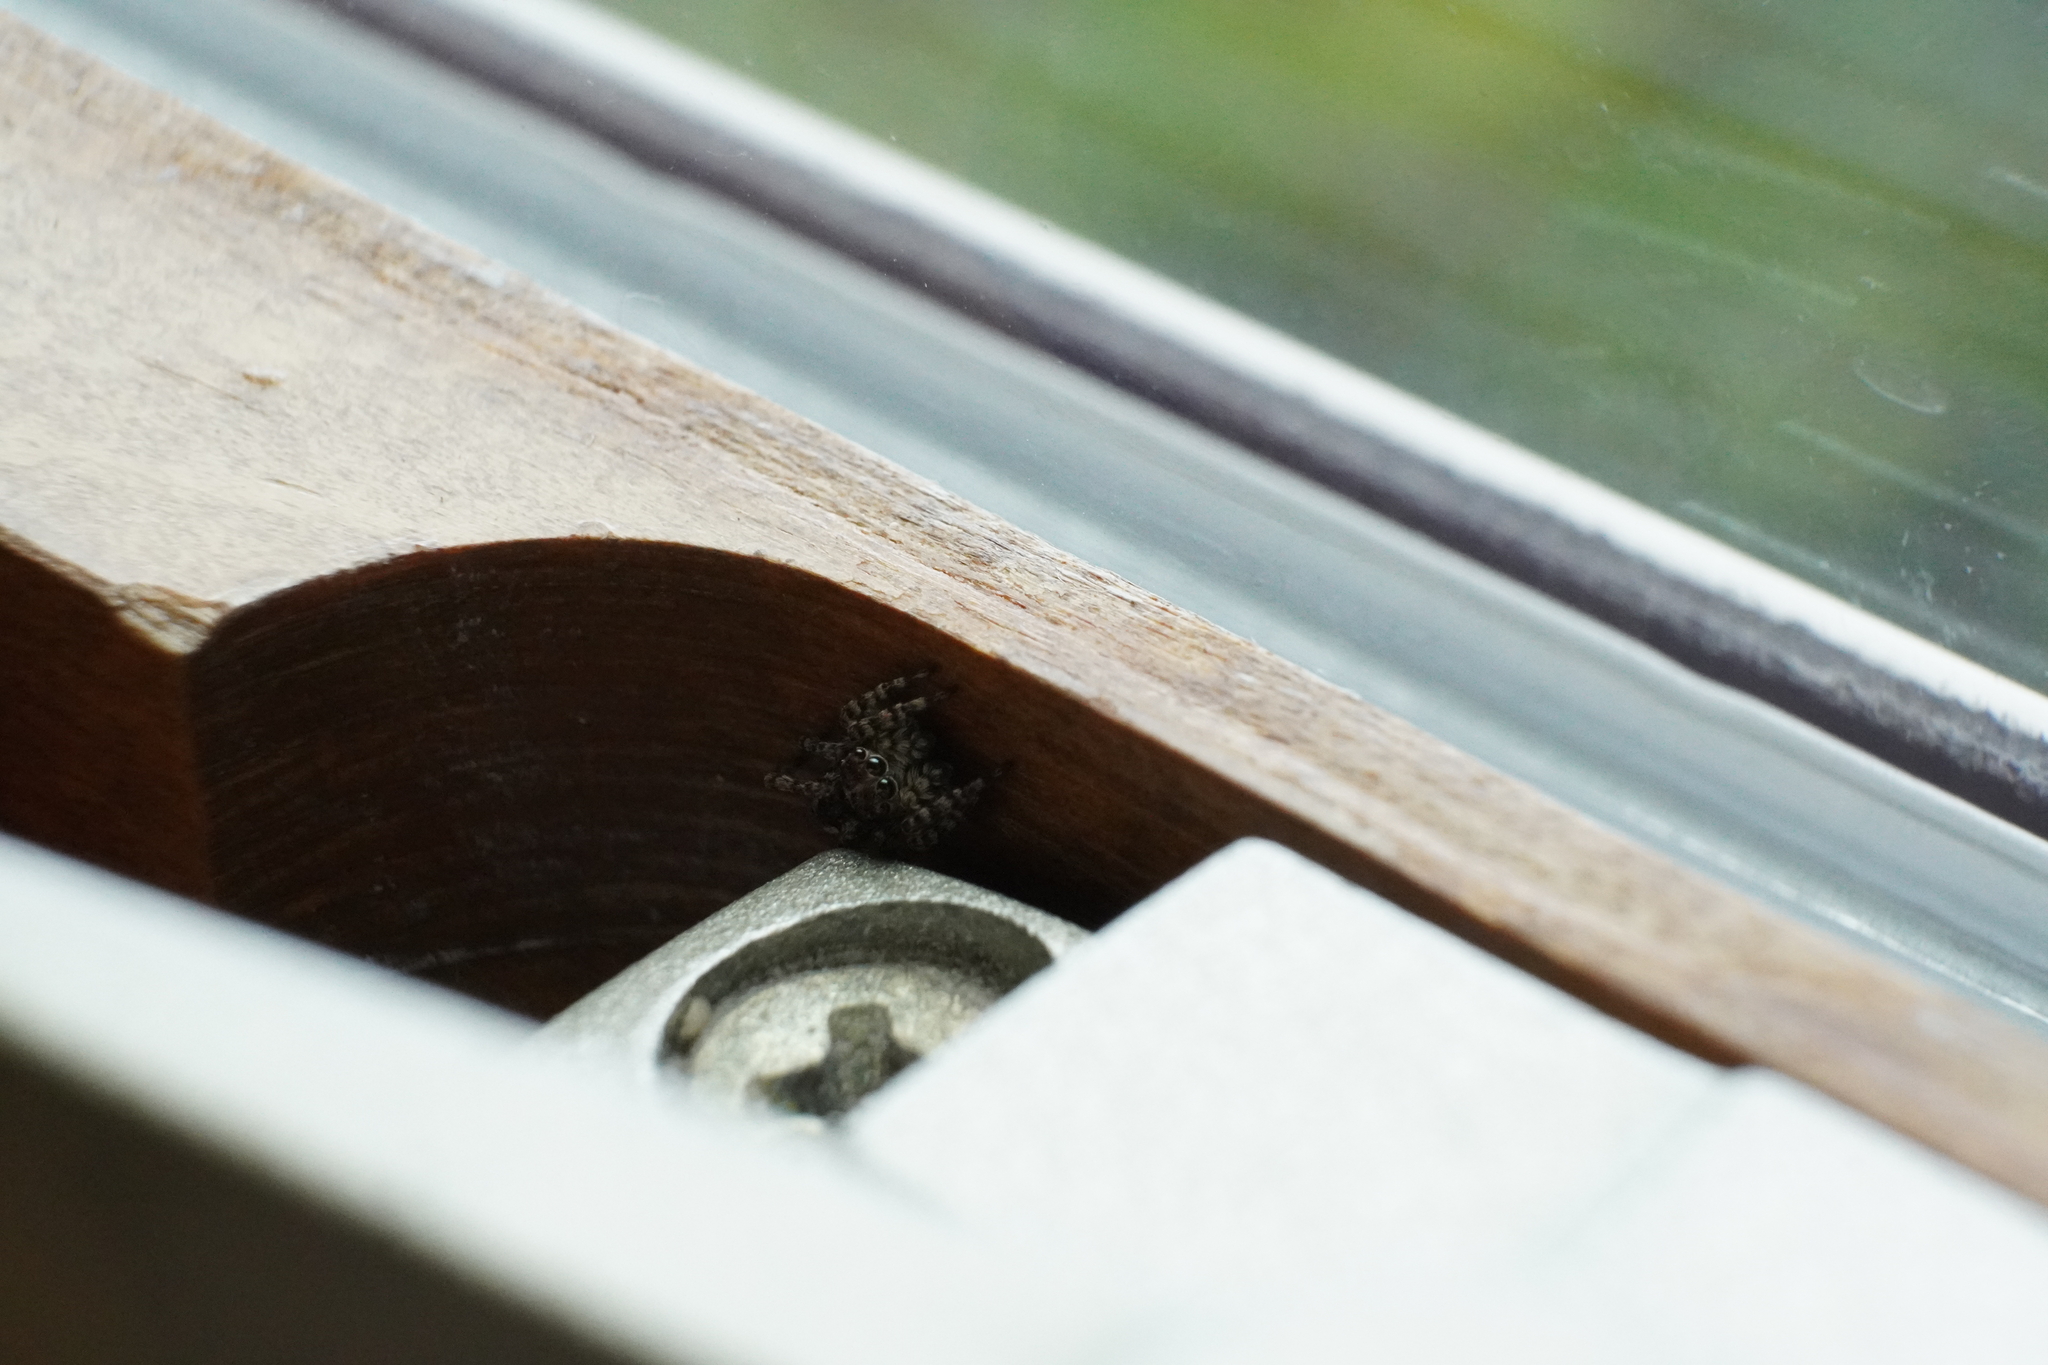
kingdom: Animalia
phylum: Arthropoda
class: Arachnida
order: Araneae
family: Salticidae
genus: Attulus
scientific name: Attulus fasciger
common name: Asiatic wall jumping spider
